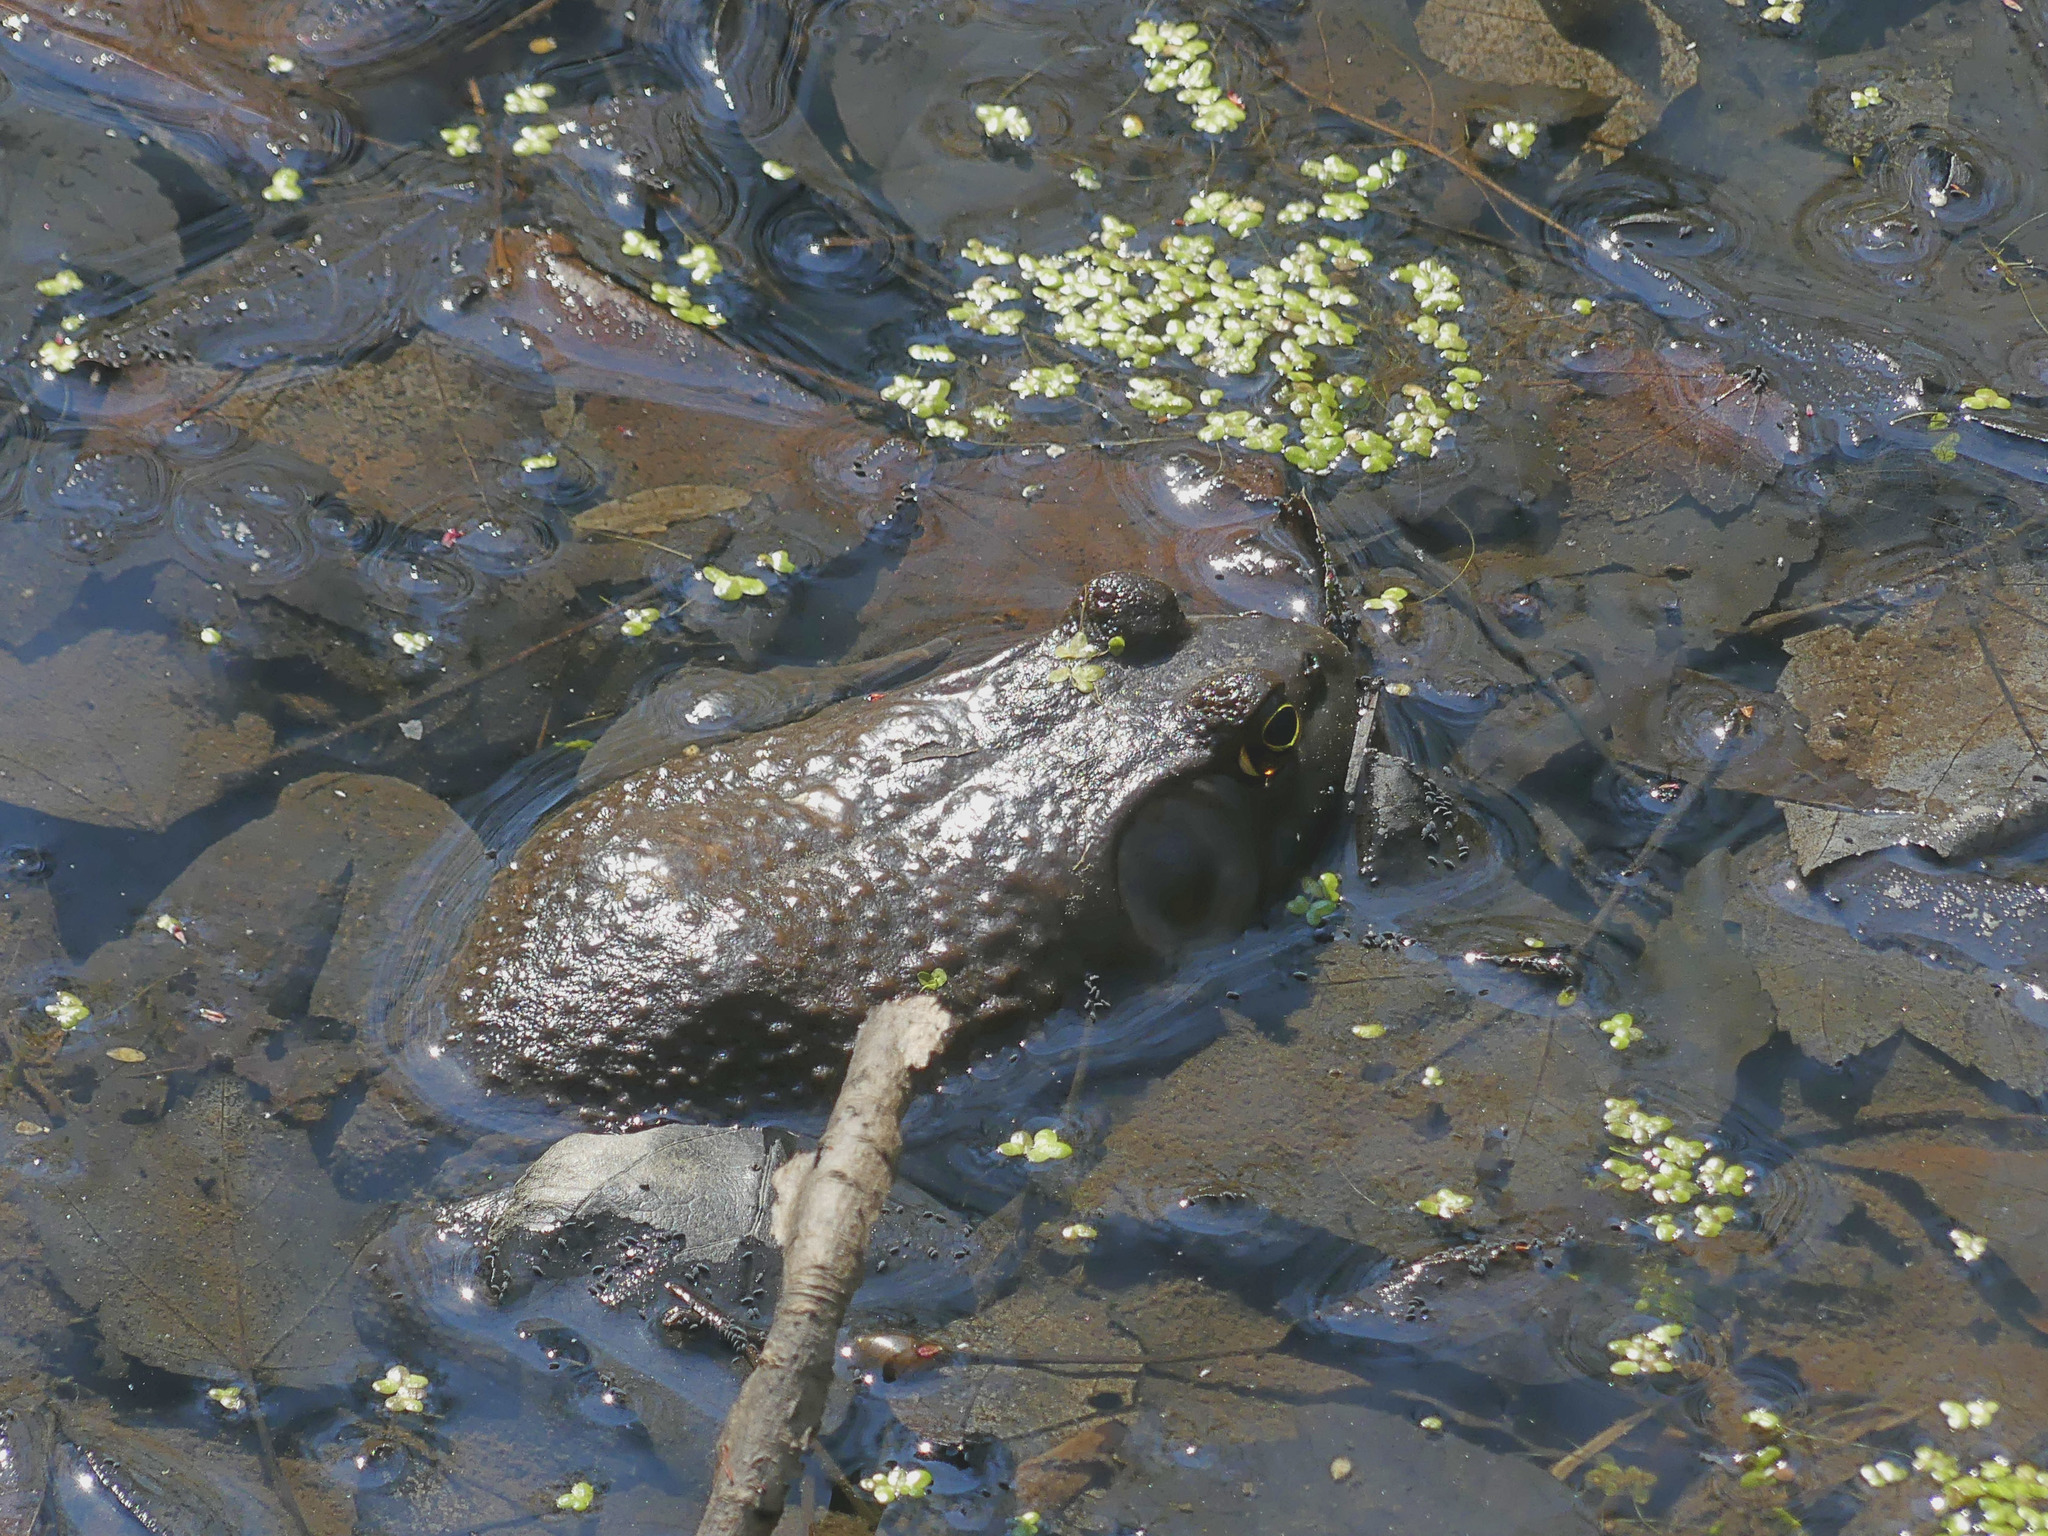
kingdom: Animalia
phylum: Chordata
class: Amphibia
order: Anura
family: Ranidae
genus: Lithobates
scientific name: Lithobates catesbeianus
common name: American bullfrog
